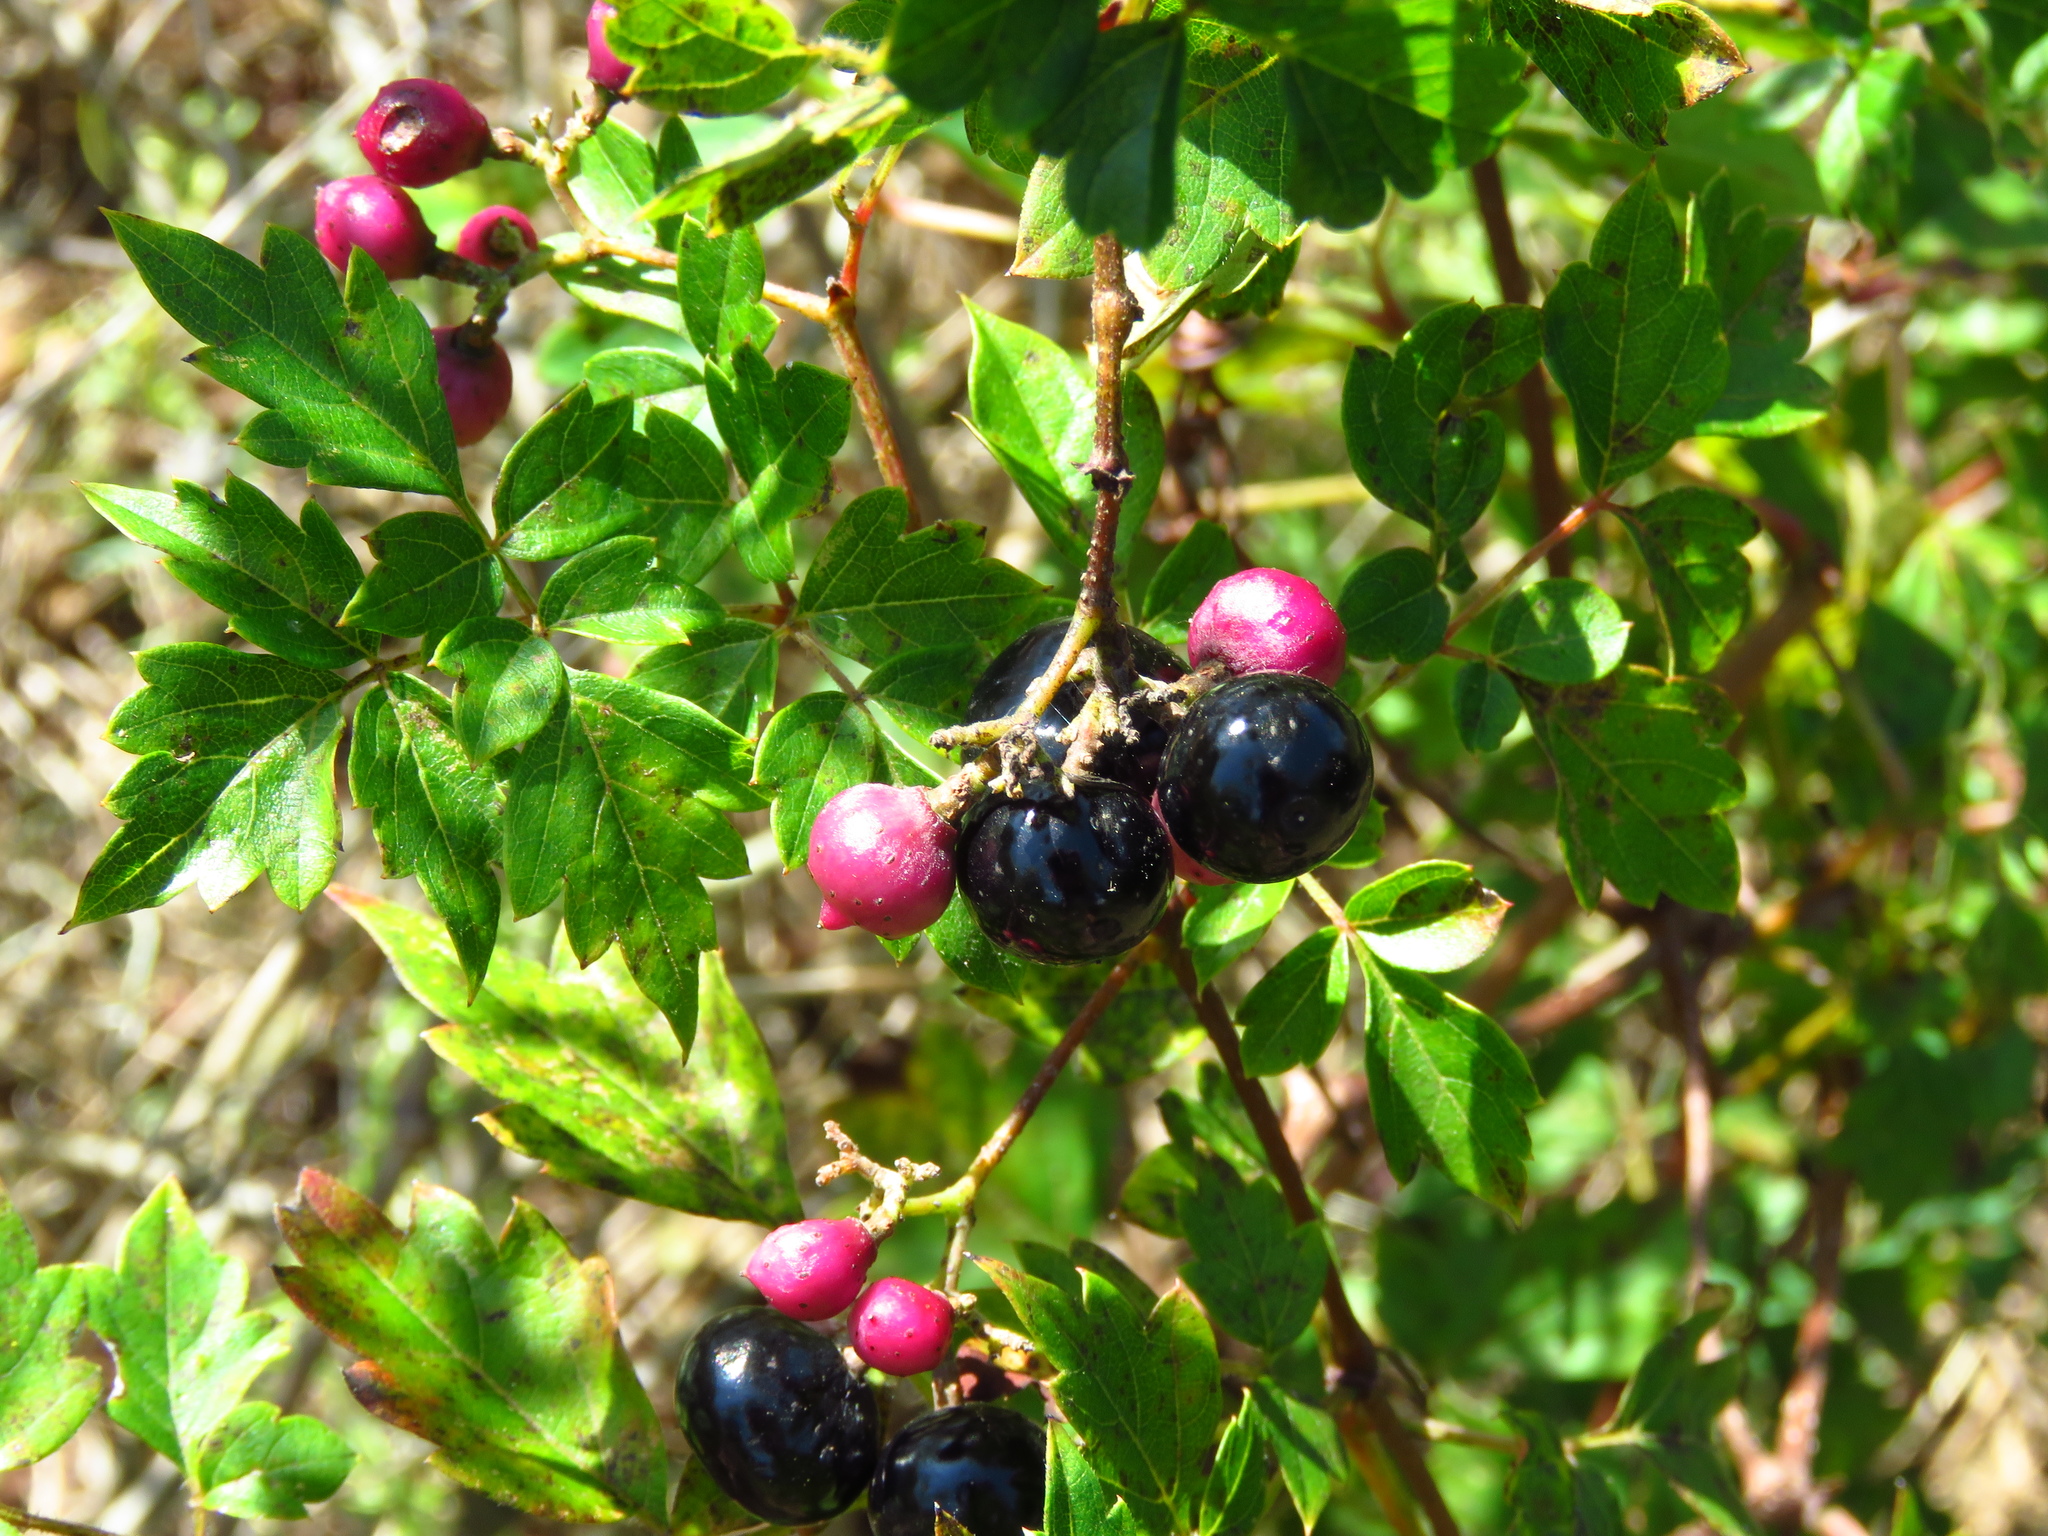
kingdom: Plantae
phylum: Tracheophyta
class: Magnoliopsida
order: Vitales
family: Vitaceae
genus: Nekemias
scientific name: Nekemias arborea
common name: Peppervine
